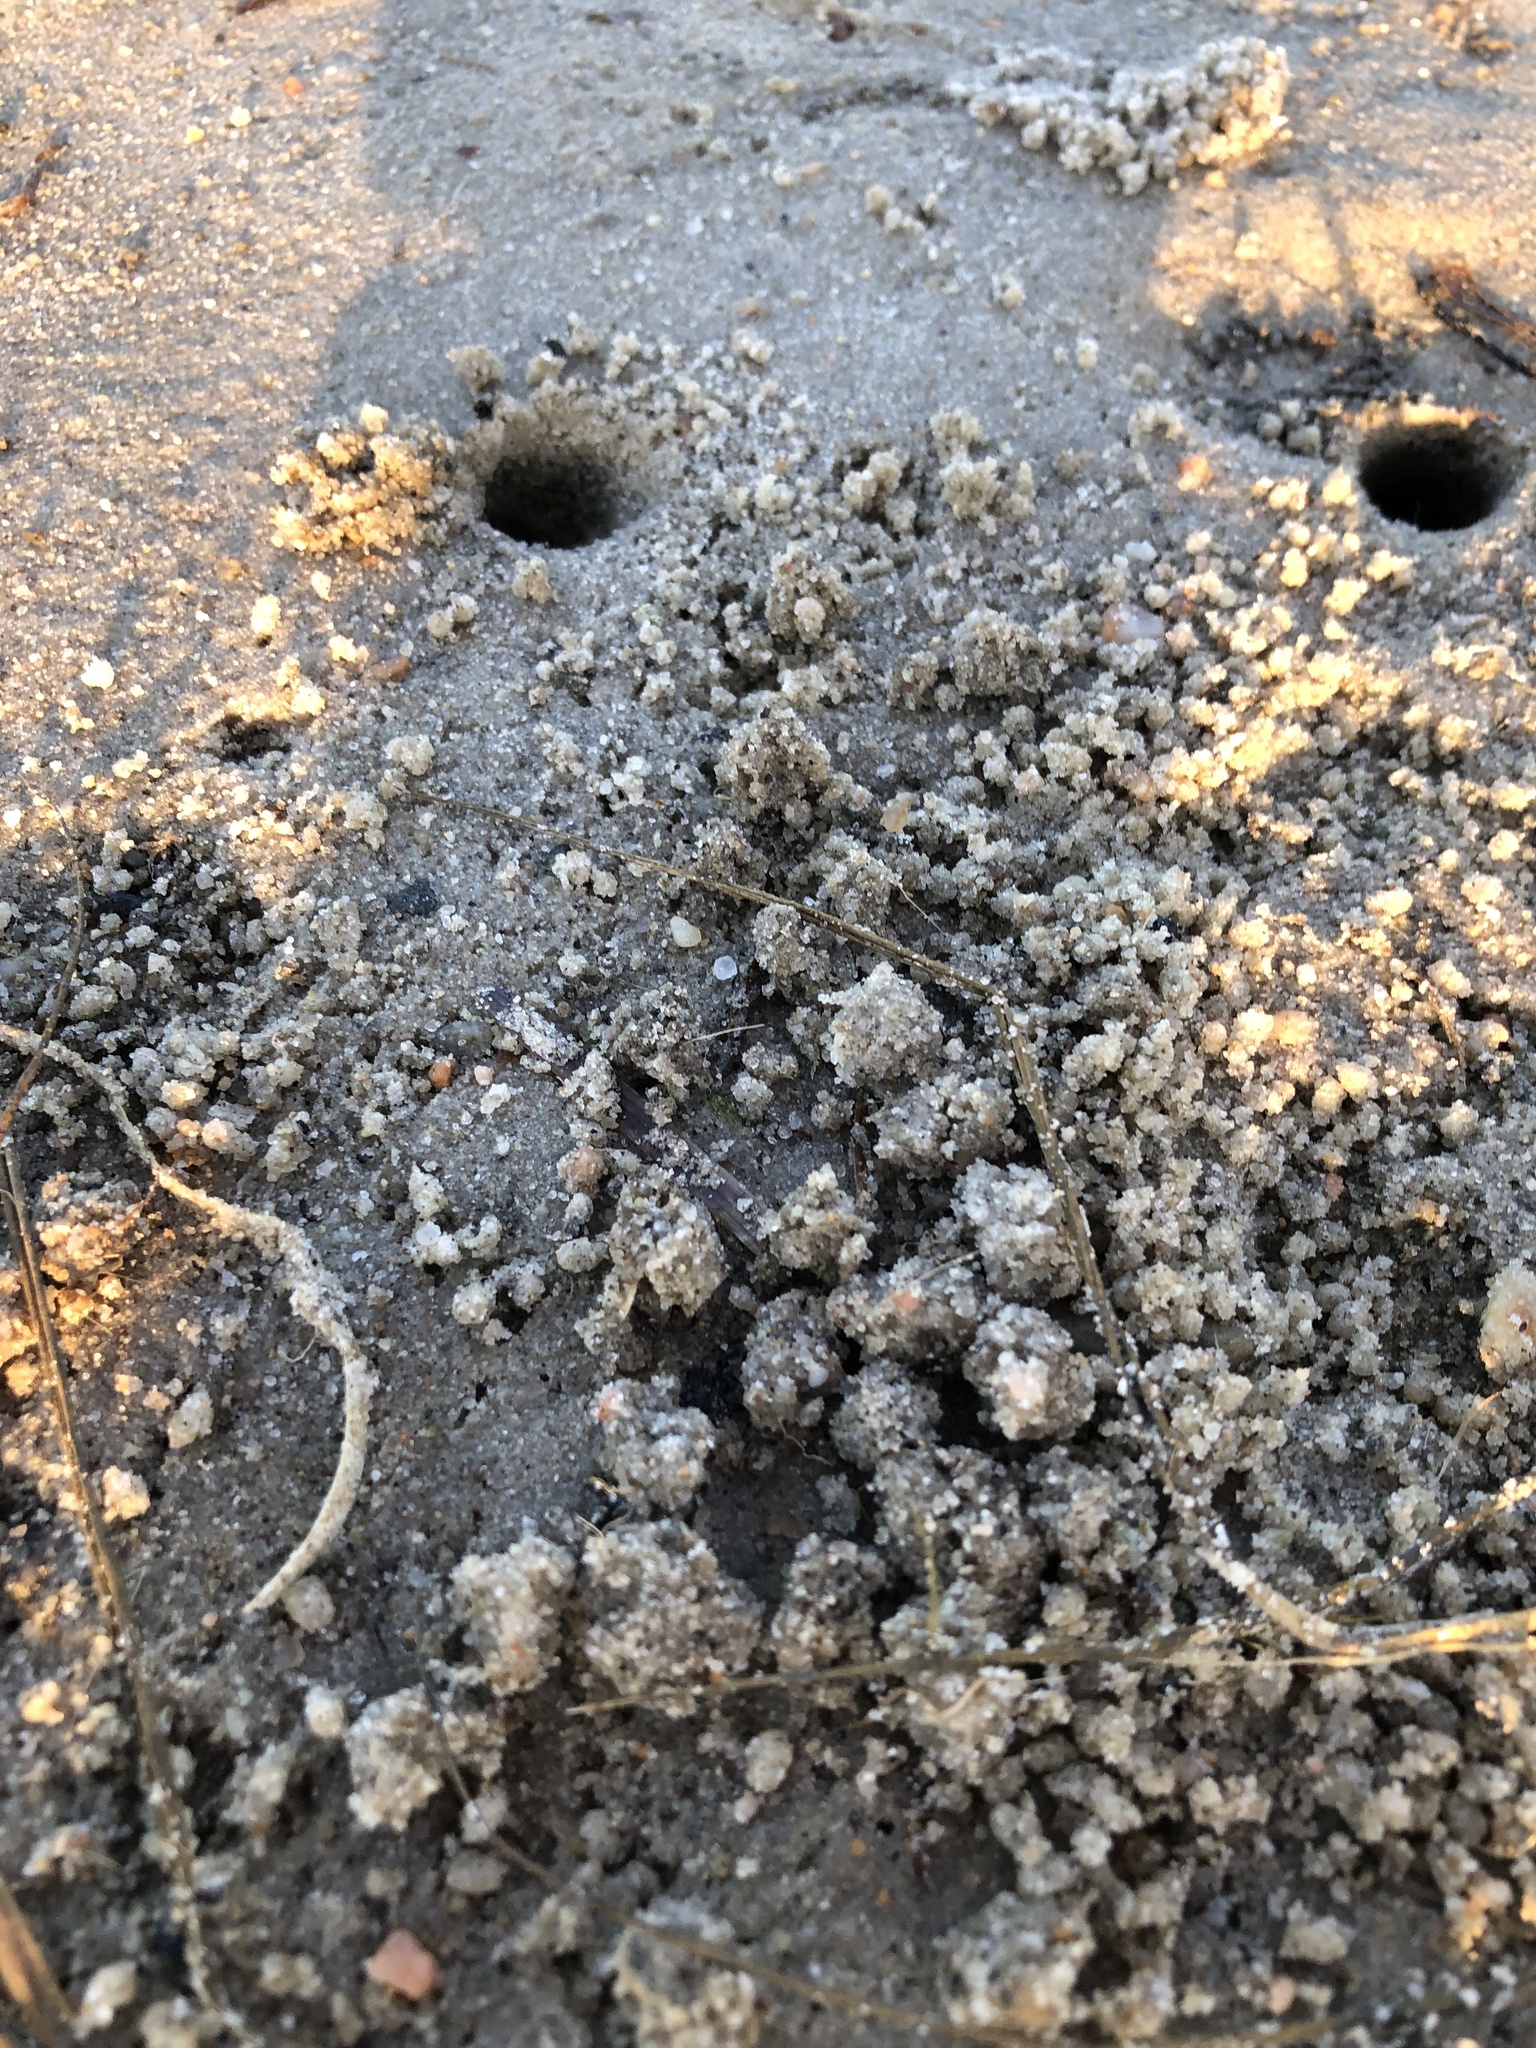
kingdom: Animalia
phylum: Arthropoda
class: Malacostraca
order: Decapoda
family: Ocypodidae
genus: Leptuca
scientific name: Leptuca pugilator
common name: Atlantic sand fiddler crab
